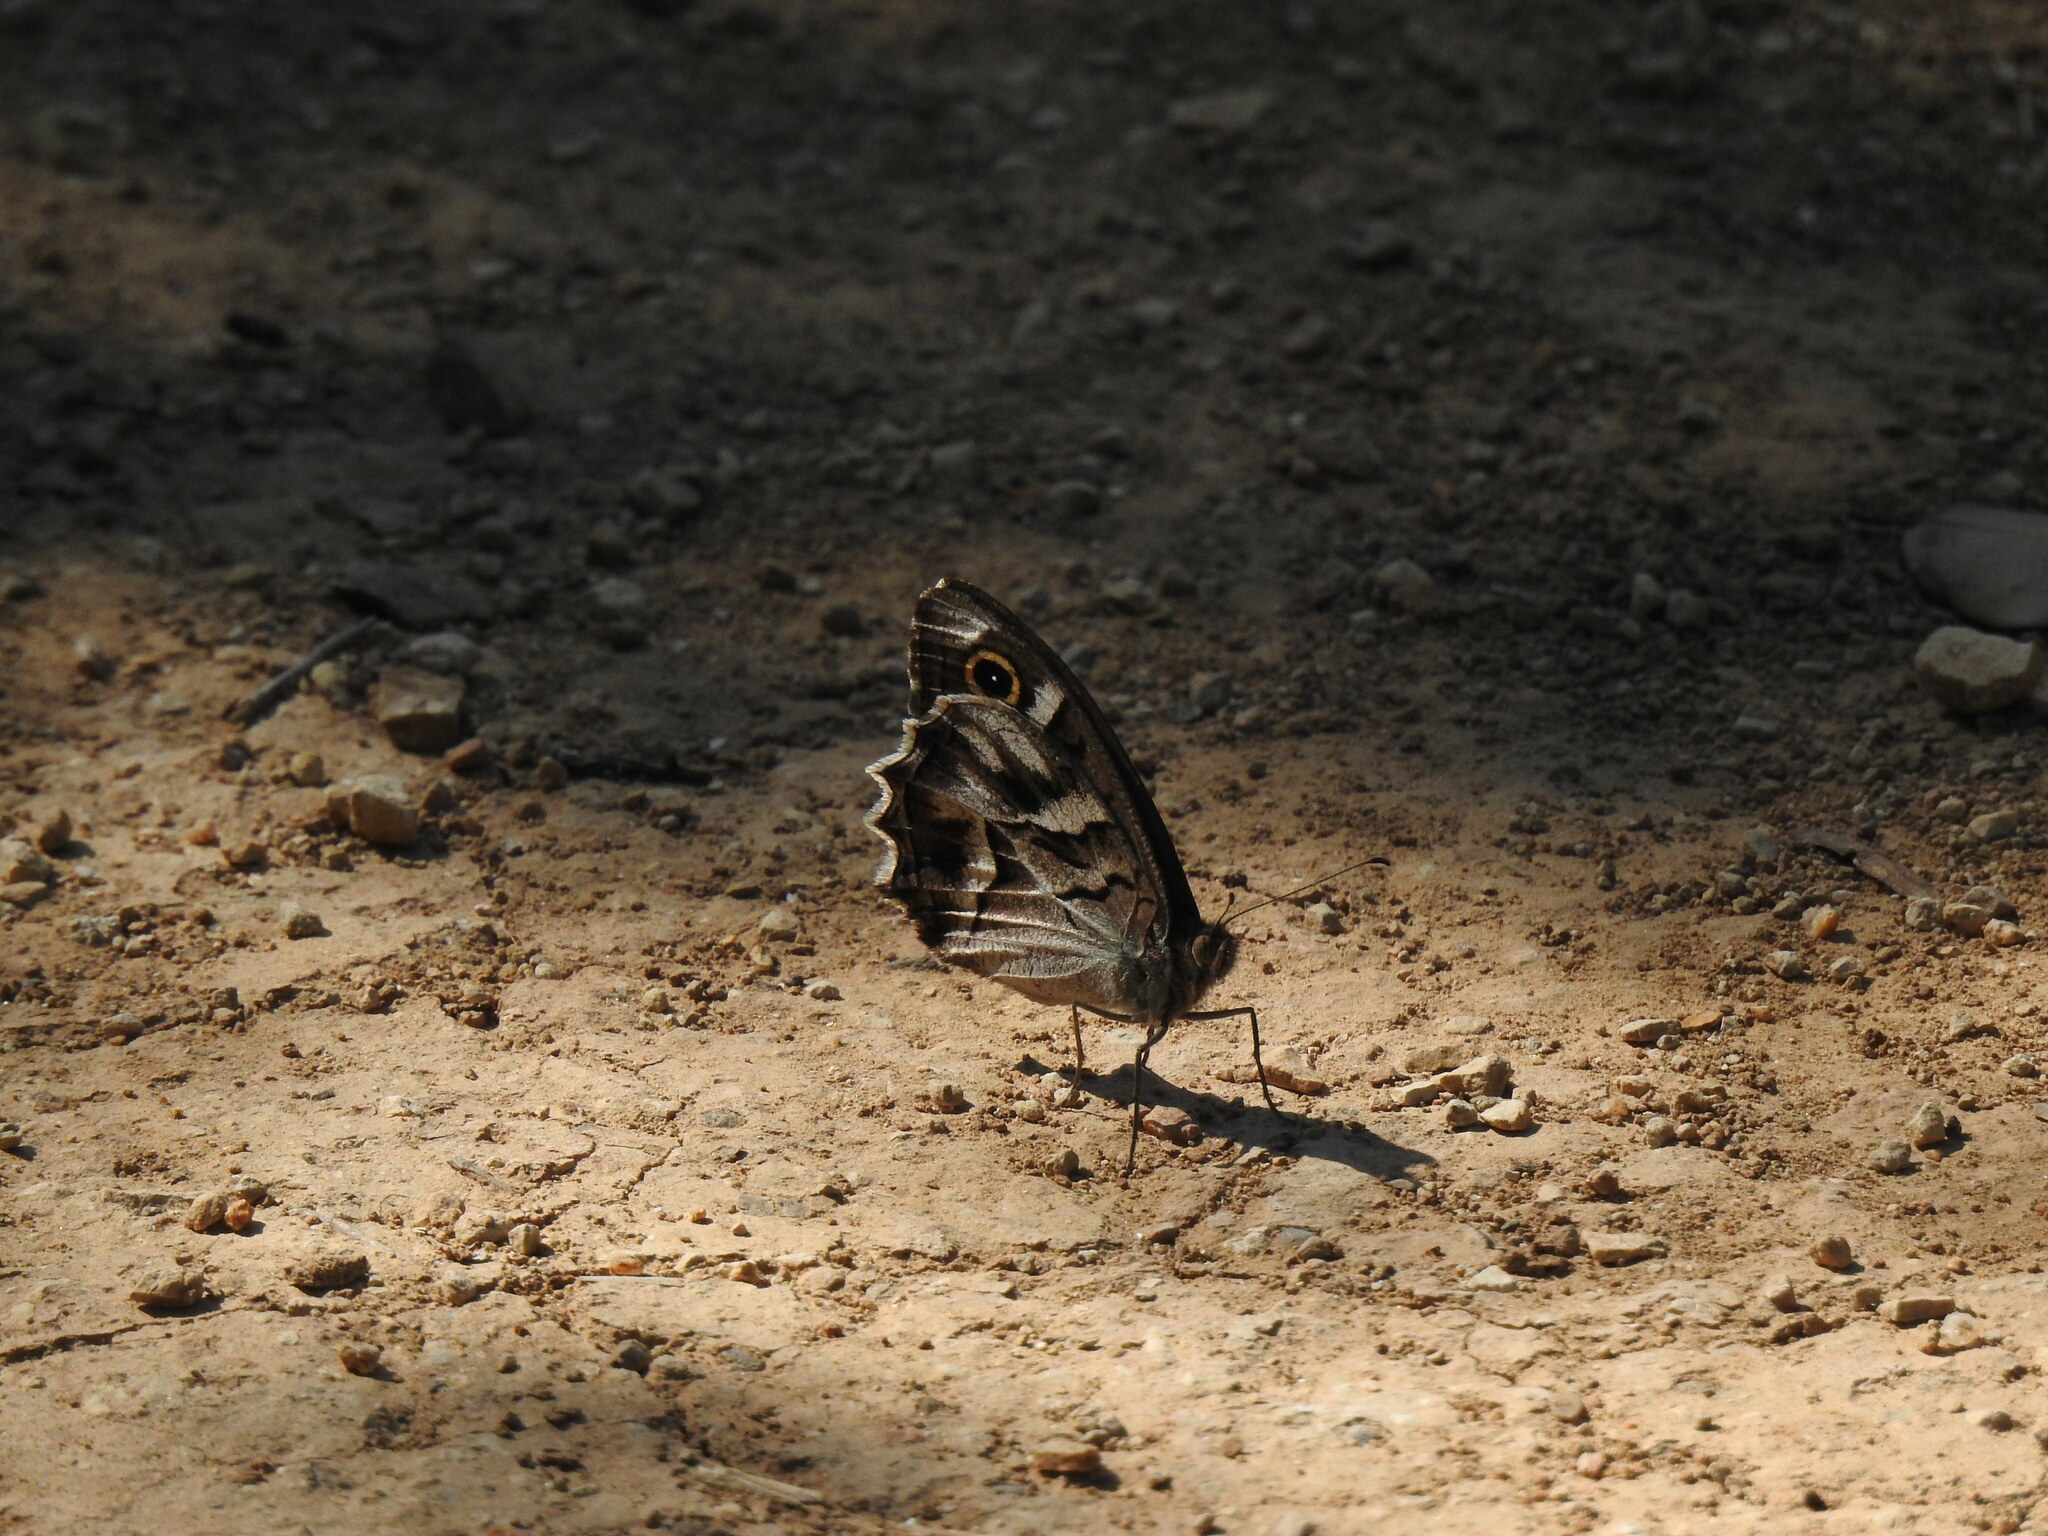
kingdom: Animalia
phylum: Arthropoda
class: Insecta
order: Lepidoptera
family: Nymphalidae
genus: Hipparchia
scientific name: Hipparchia fidia
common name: Striped grayling
